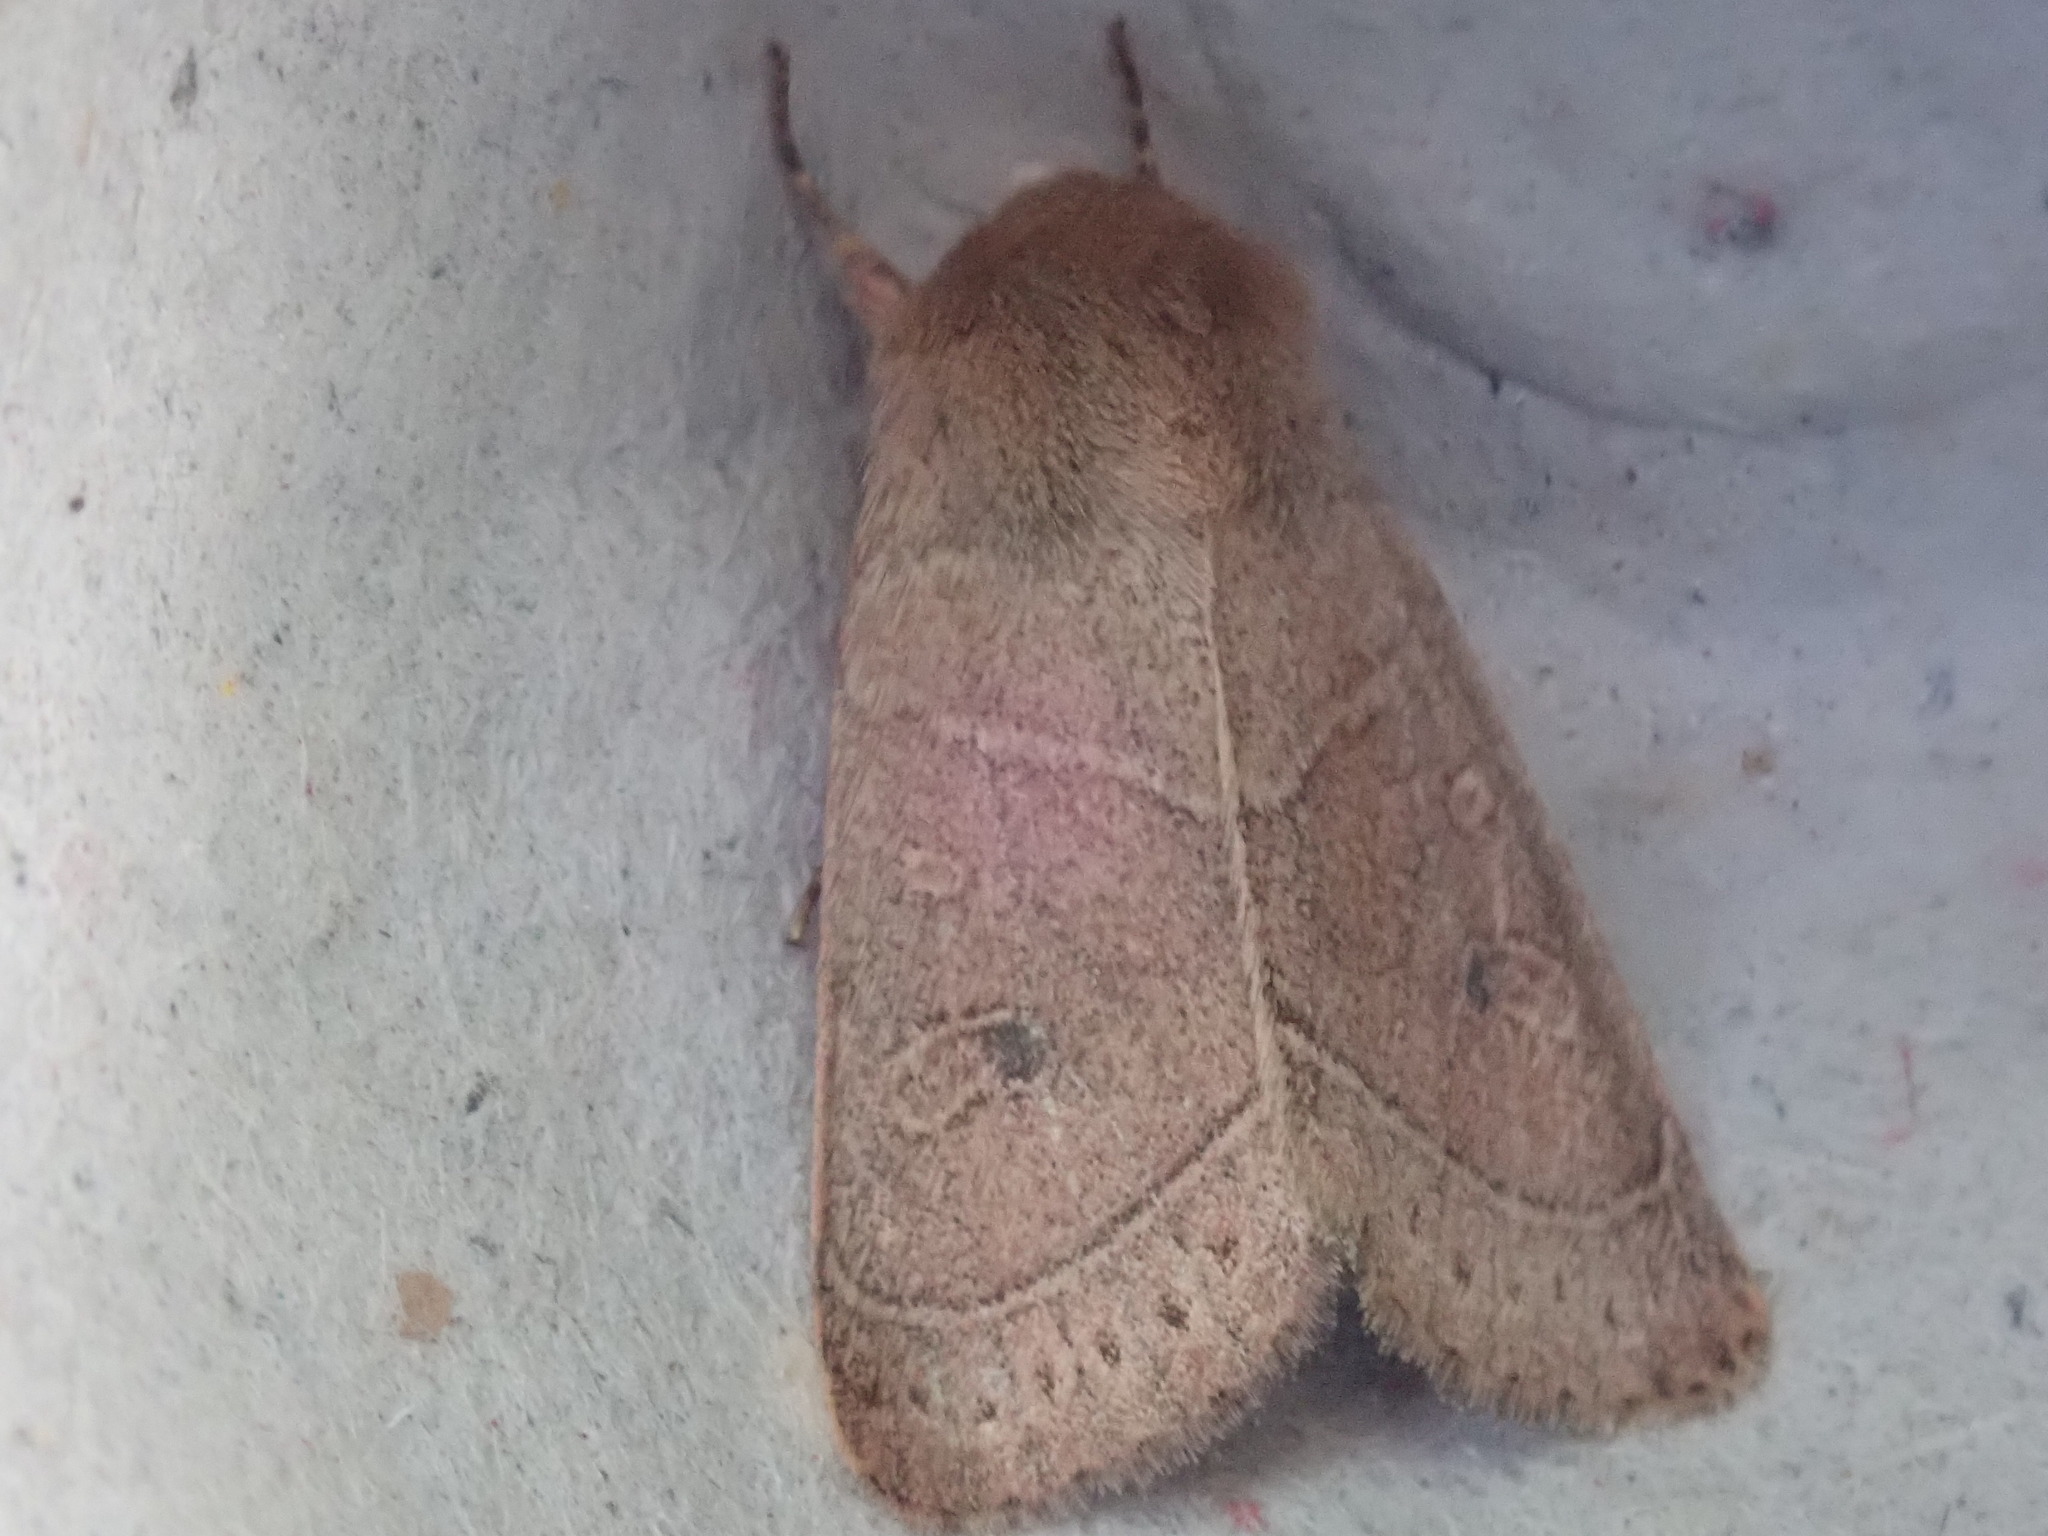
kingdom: Animalia
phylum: Arthropoda
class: Insecta
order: Lepidoptera
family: Noctuidae
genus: Ulolonche
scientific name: Ulolonche culea
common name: Sheathed quaker
